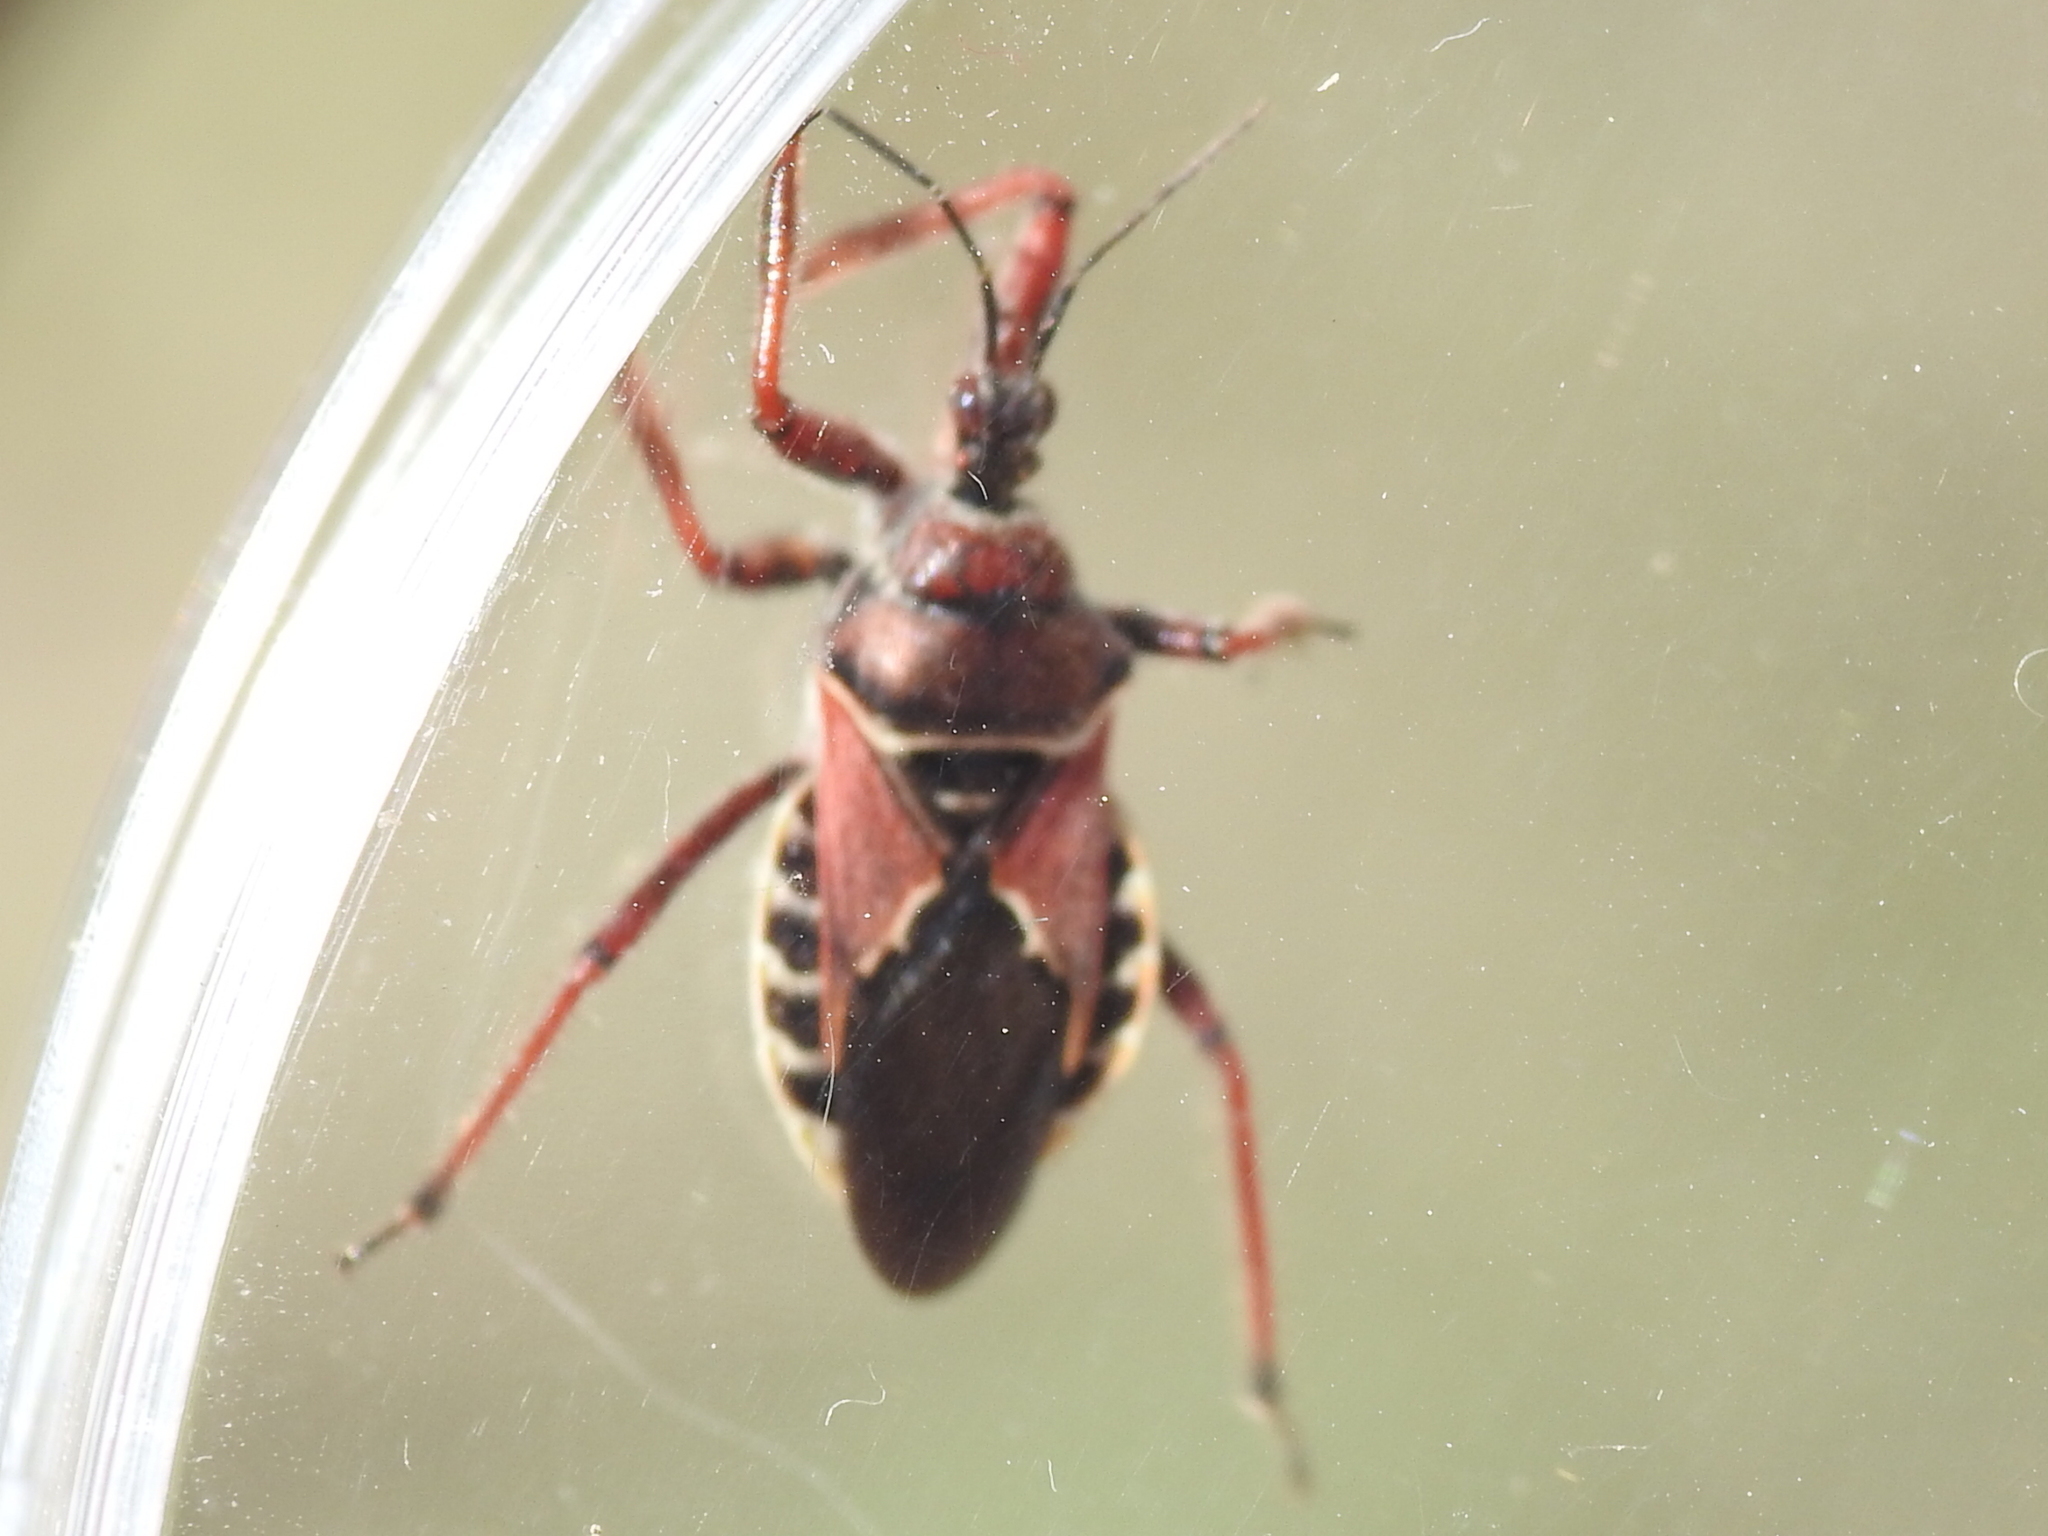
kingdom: Animalia
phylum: Arthropoda
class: Insecta
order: Hemiptera
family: Reduviidae
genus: Apiomerus
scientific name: Apiomerus spissipes
